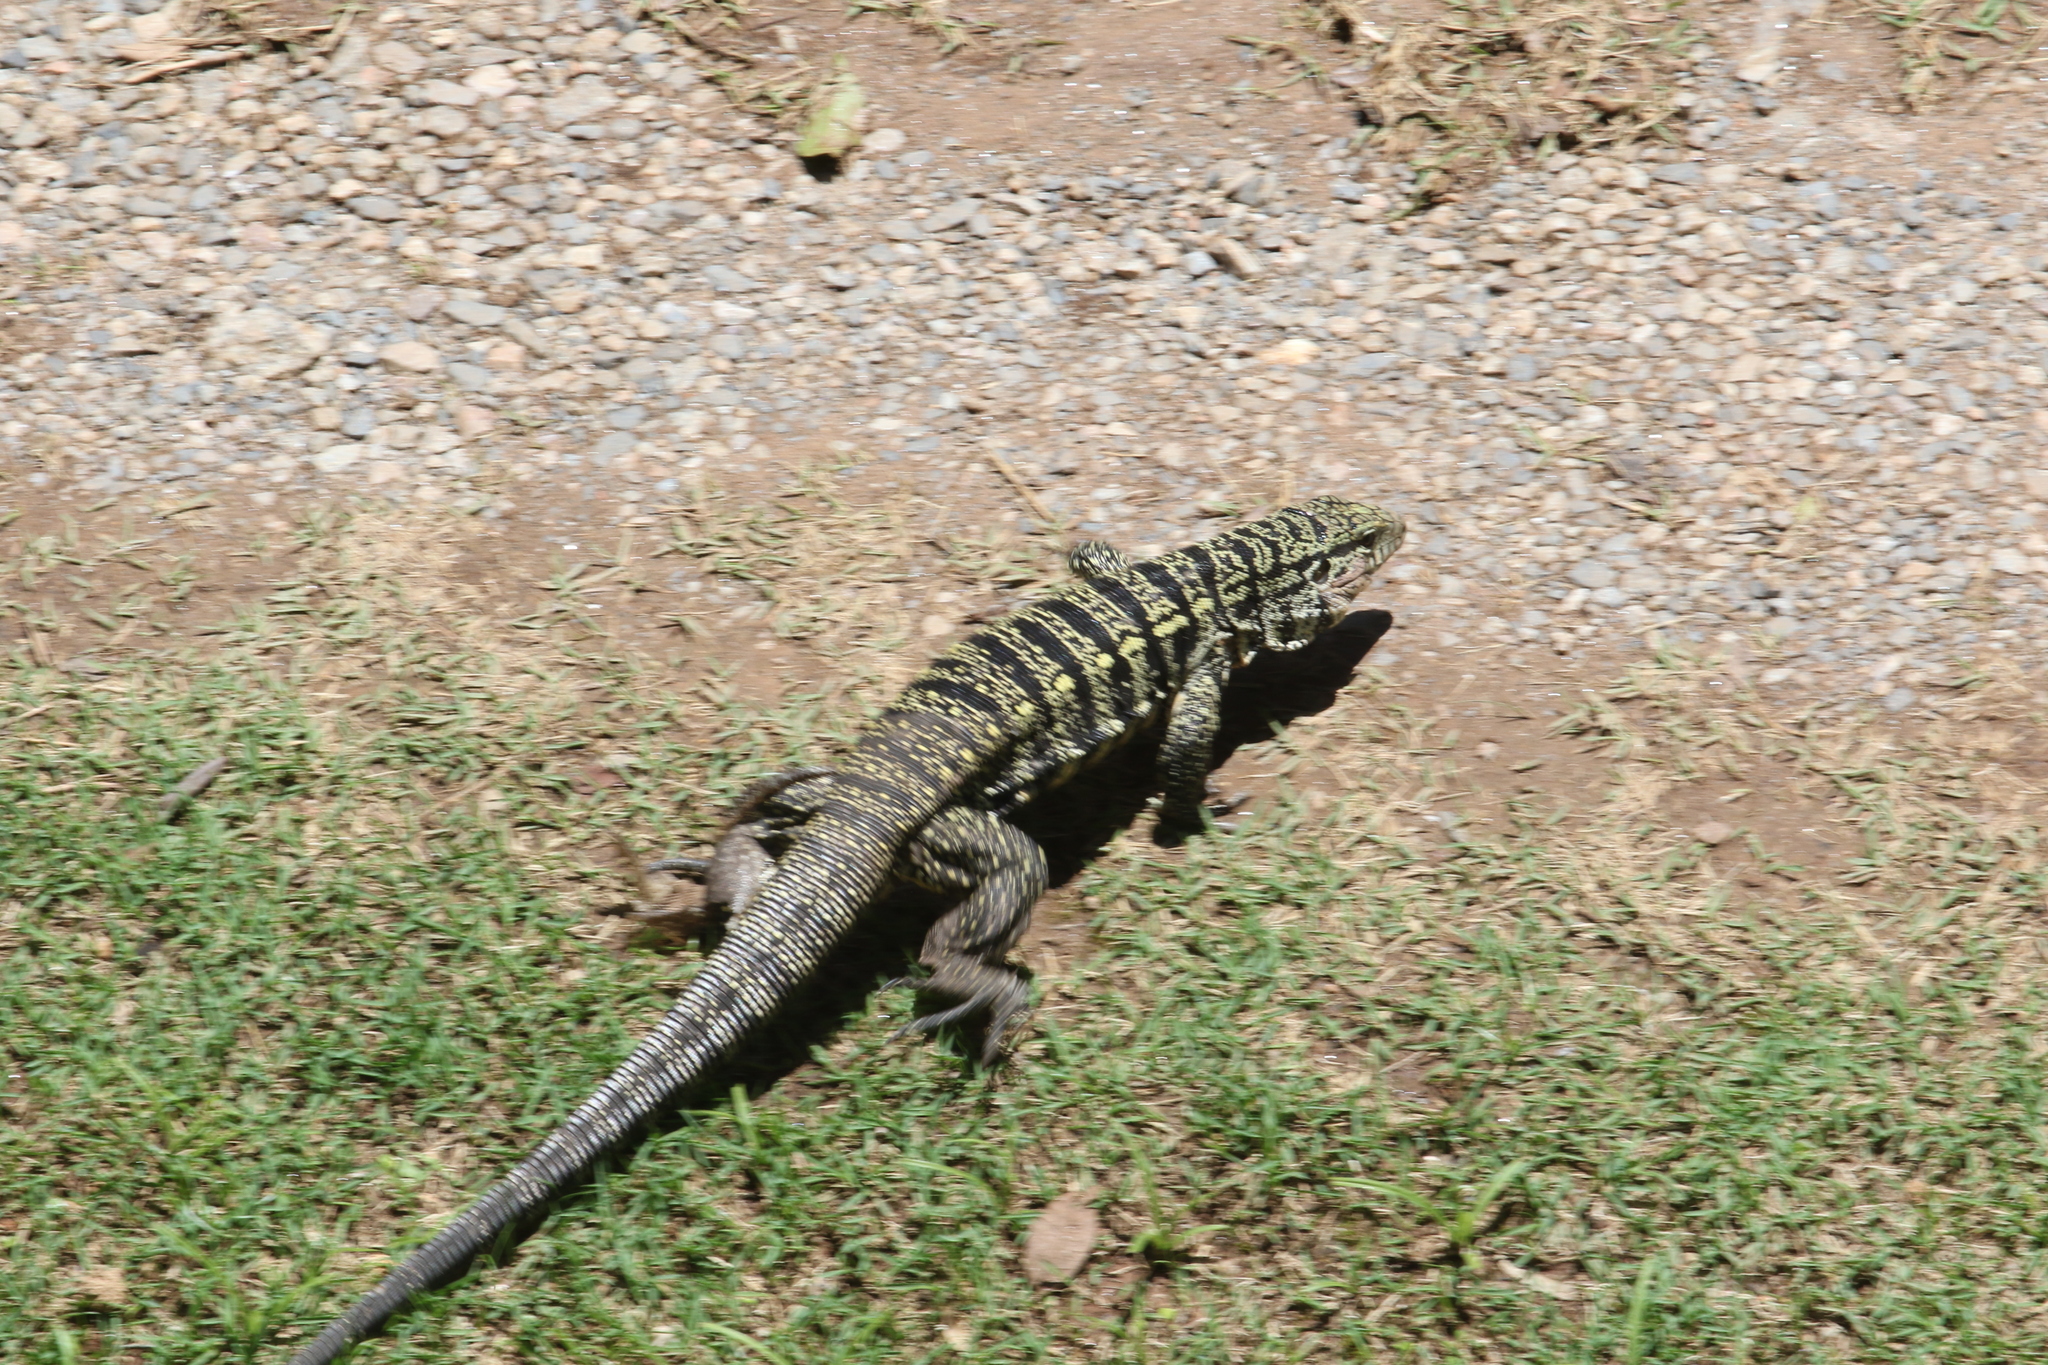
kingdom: Animalia
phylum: Chordata
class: Squamata
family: Teiidae
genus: Salvator
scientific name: Salvator merianae
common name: Argentine black and white tegu
